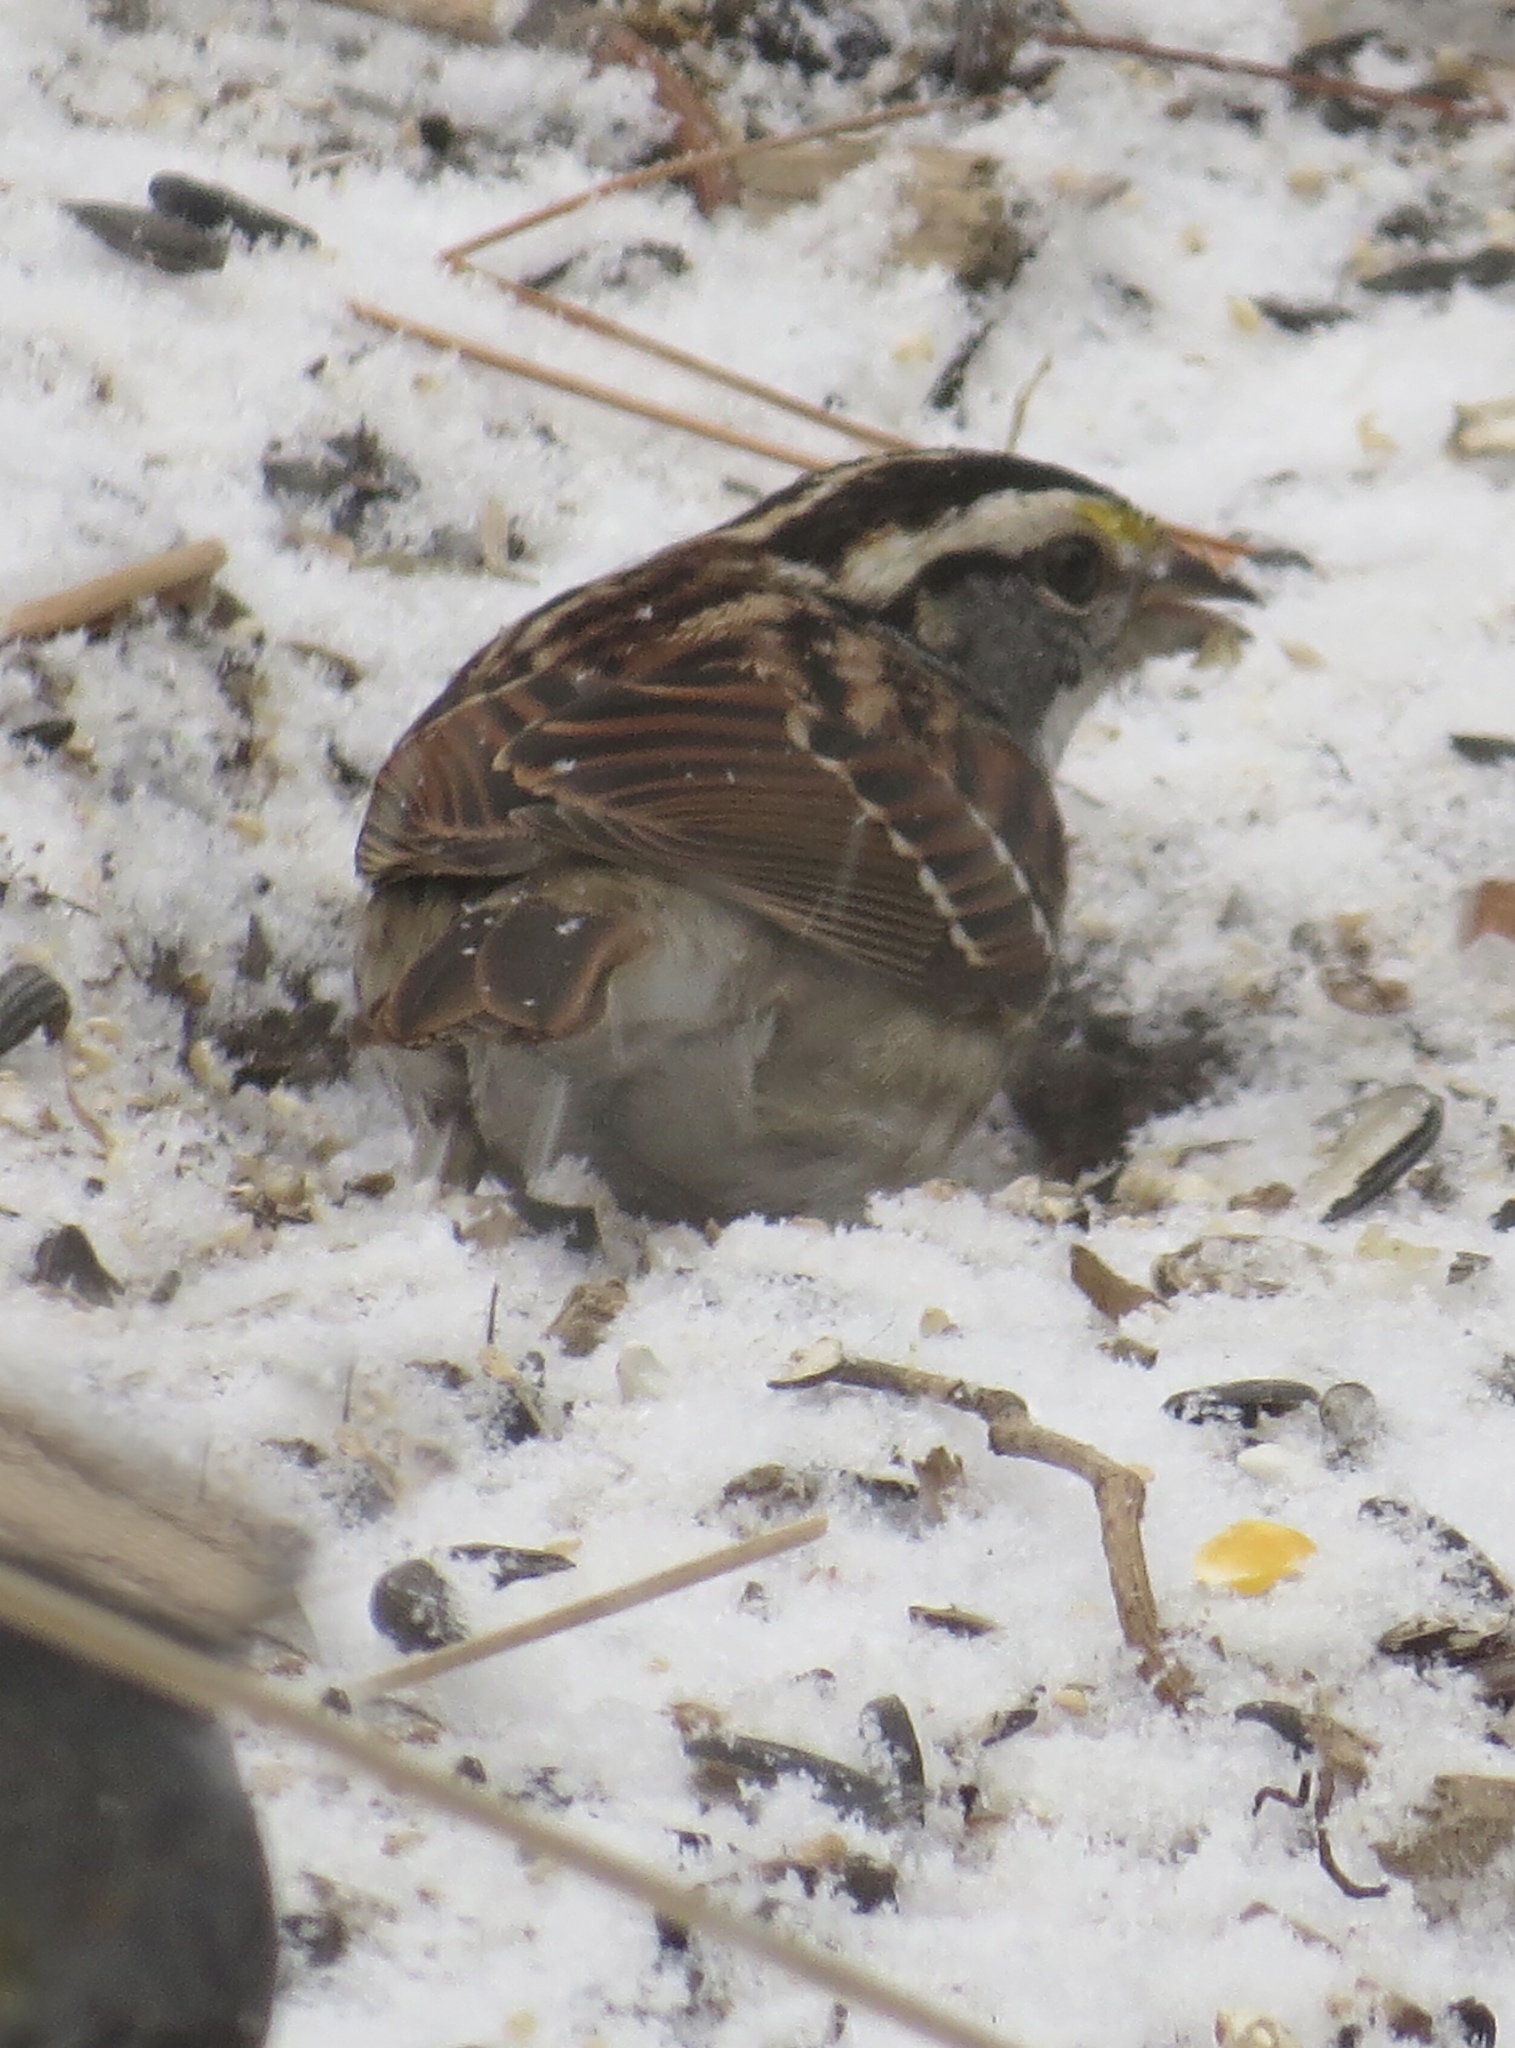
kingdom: Animalia
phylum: Chordata
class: Aves
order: Passeriformes
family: Passerellidae
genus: Zonotrichia
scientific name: Zonotrichia albicollis
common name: White-throated sparrow
